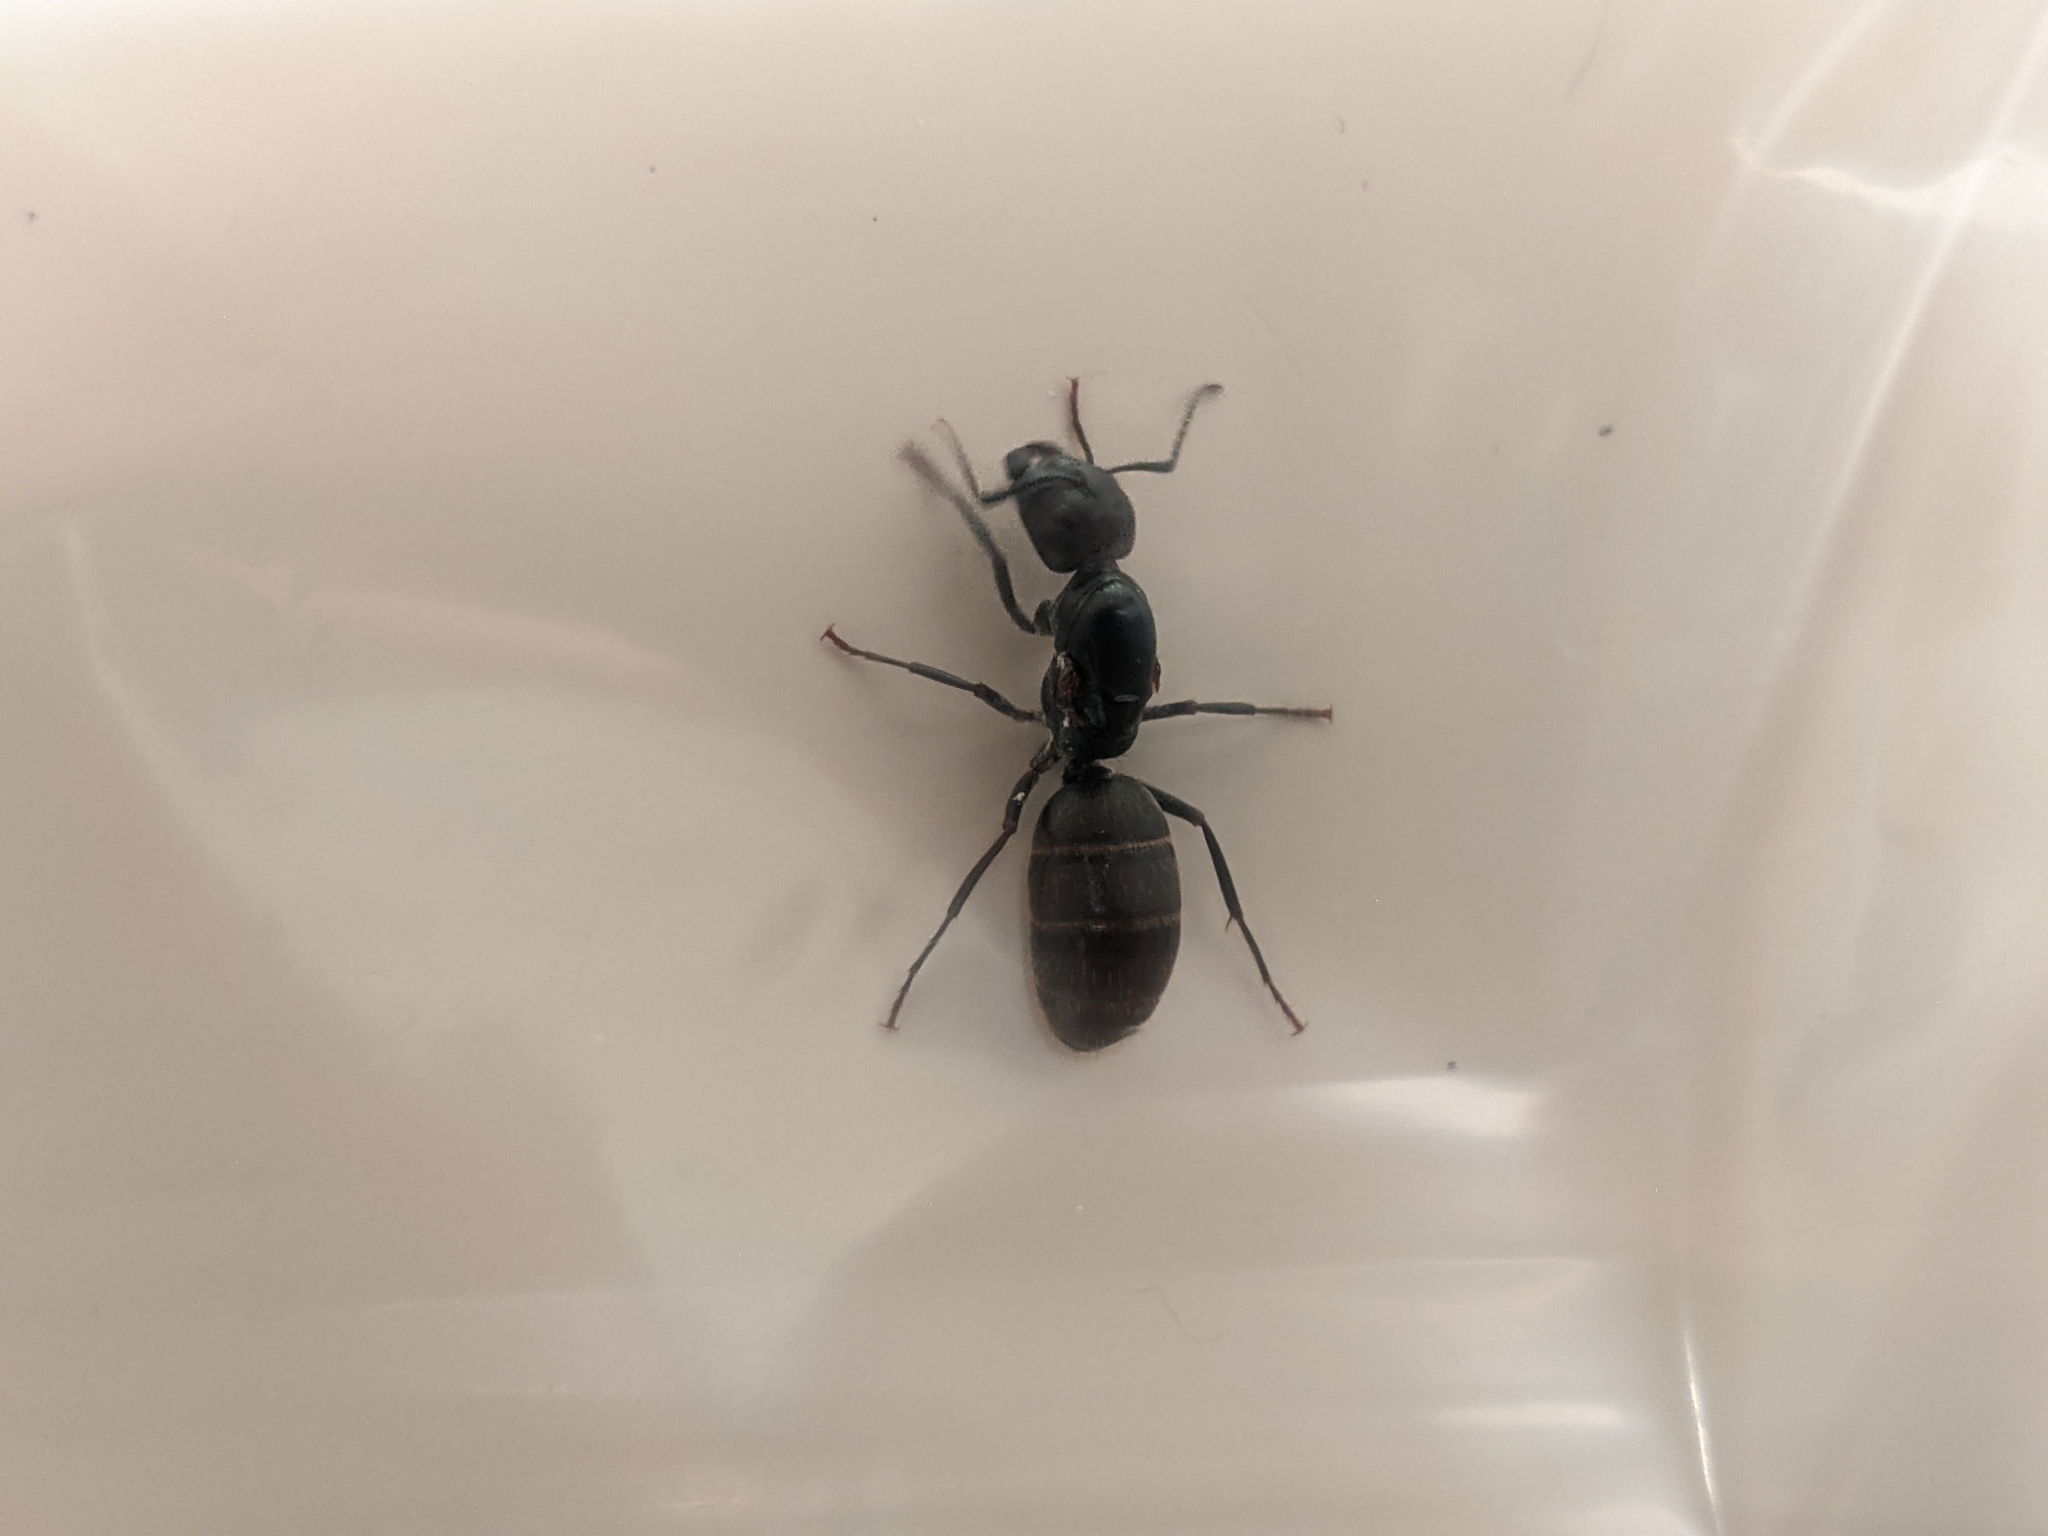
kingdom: Animalia
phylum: Arthropoda
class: Insecta
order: Hymenoptera
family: Formicidae
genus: Camponotus
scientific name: Camponotus pennsylvanicus
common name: Black carpenter ant
